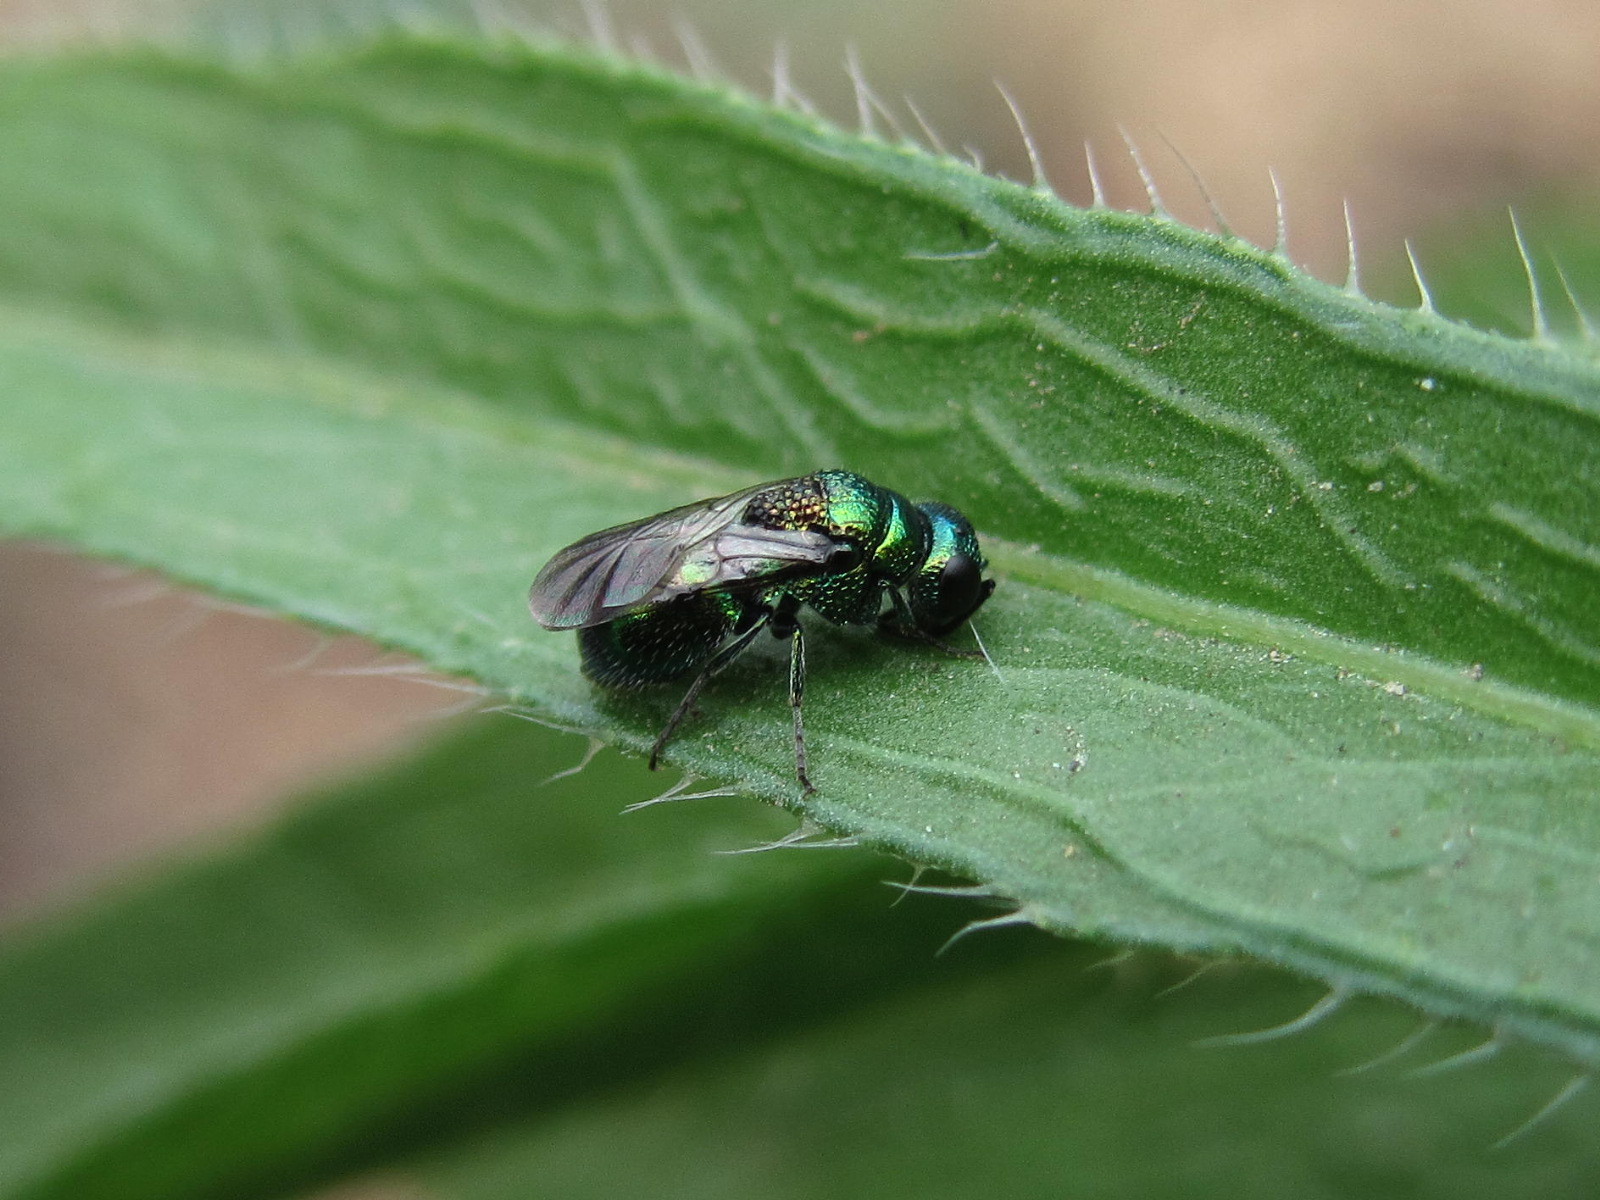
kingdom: Animalia
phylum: Arthropoda
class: Insecta
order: Hymenoptera
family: Chrysididae
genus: Pseudomalus
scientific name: Pseudomalus pusillus
